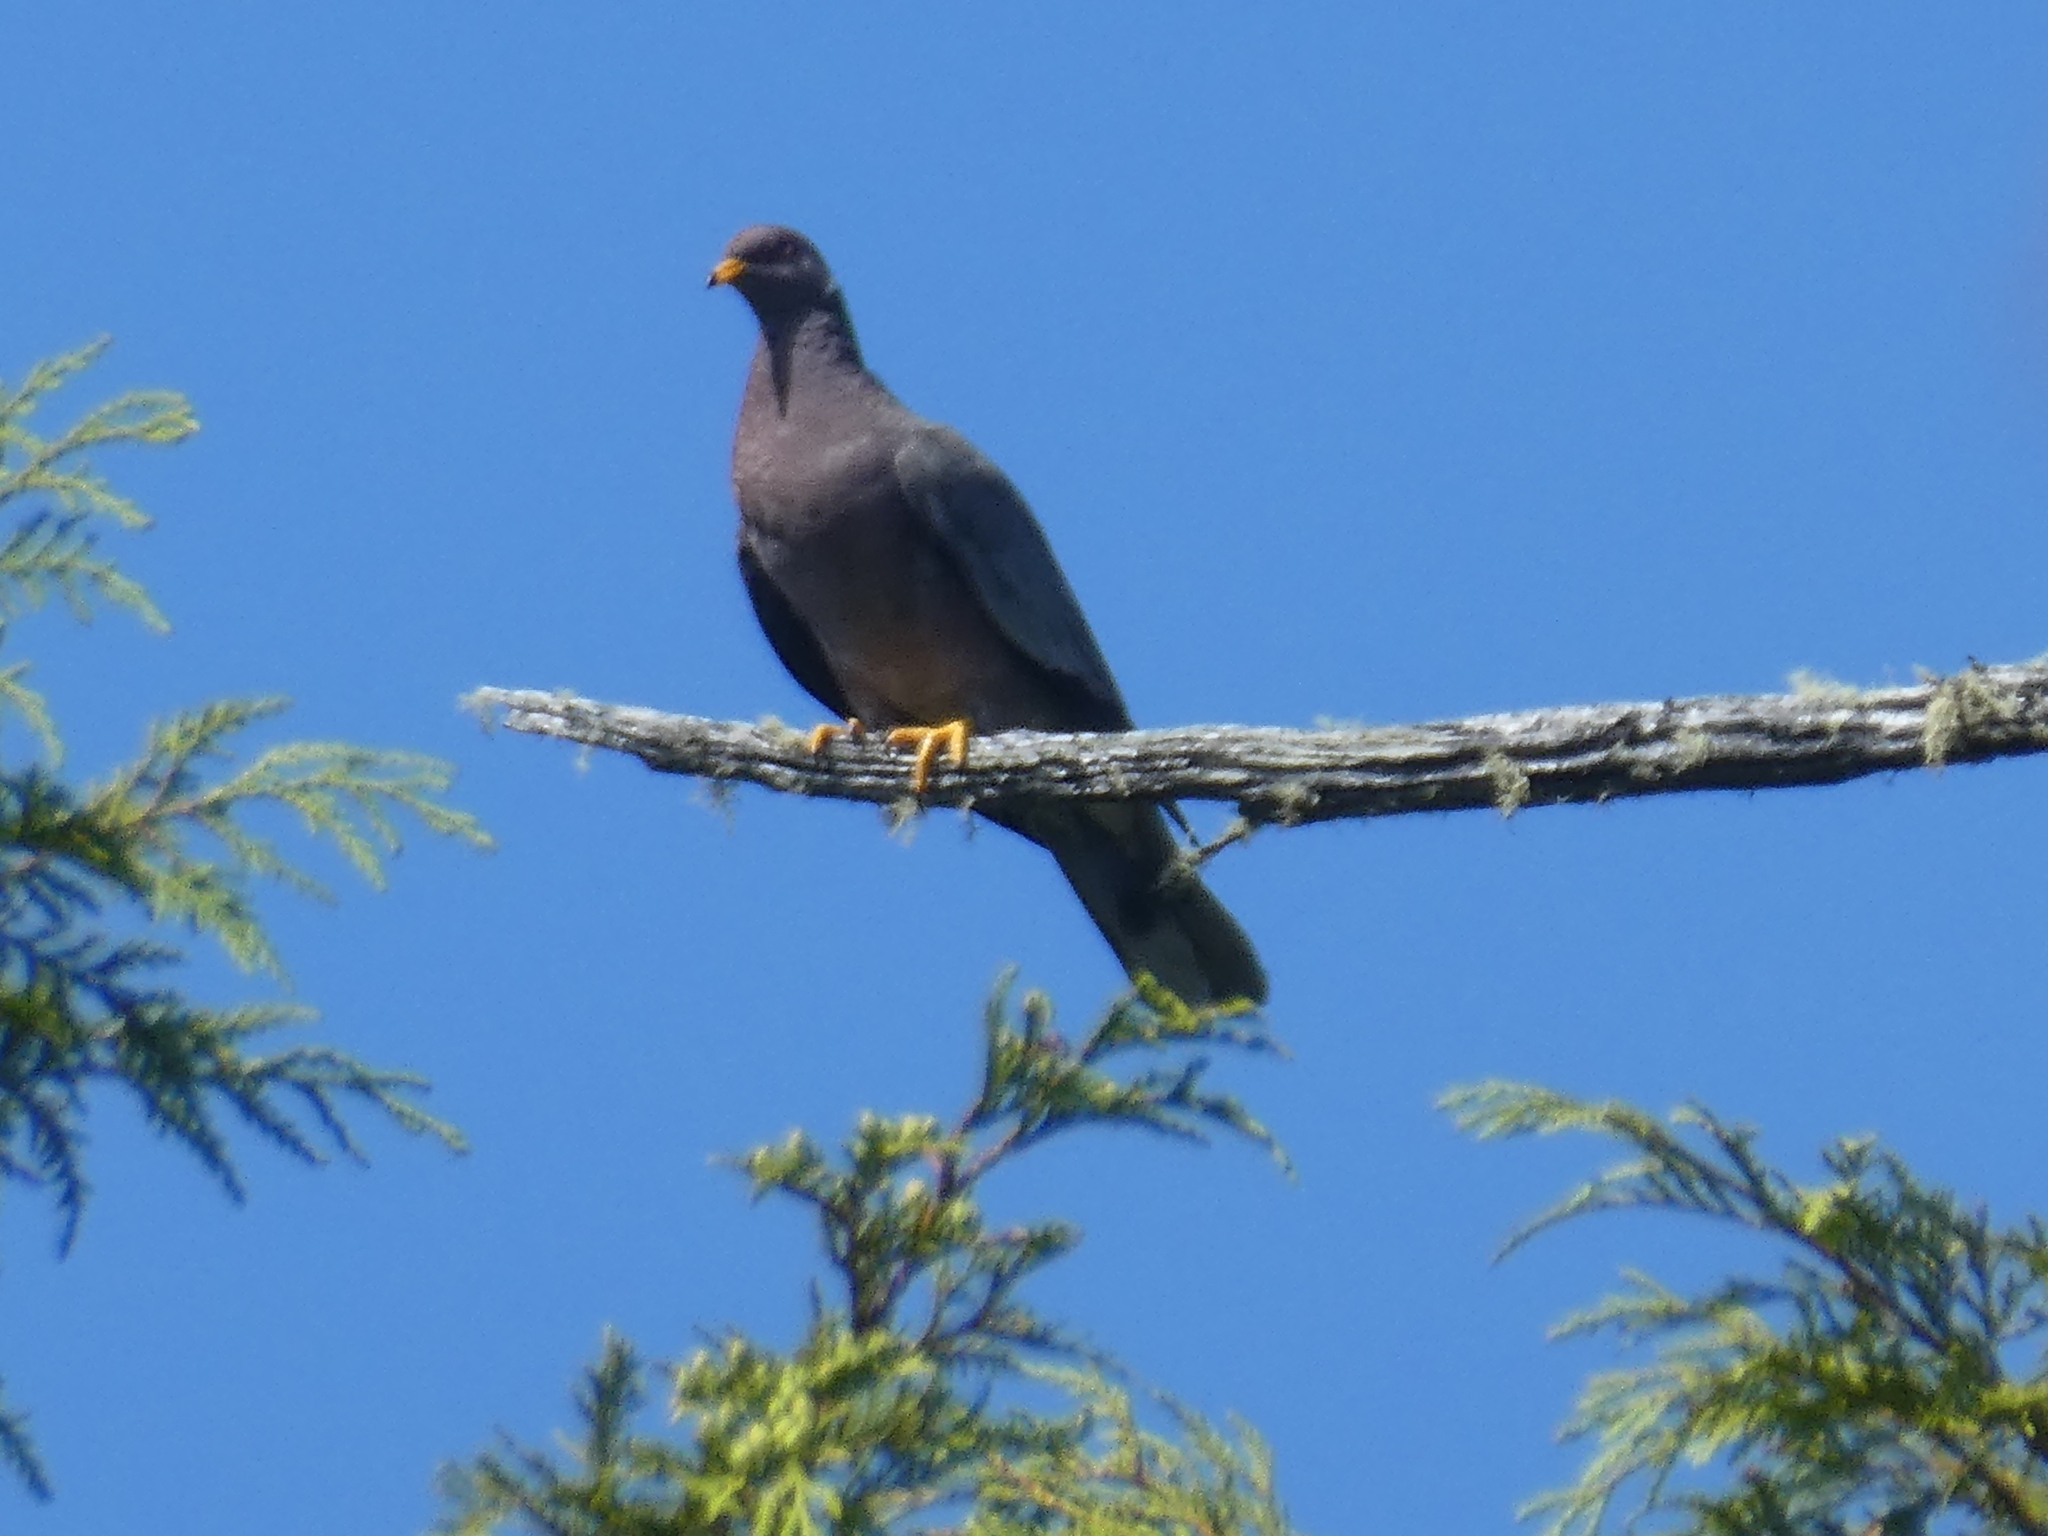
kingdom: Animalia
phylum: Chordata
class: Aves
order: Columbiformes
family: Columbidae
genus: Patagioenas
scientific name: Patagioenas fasciata
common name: Band-tailed pigeon
